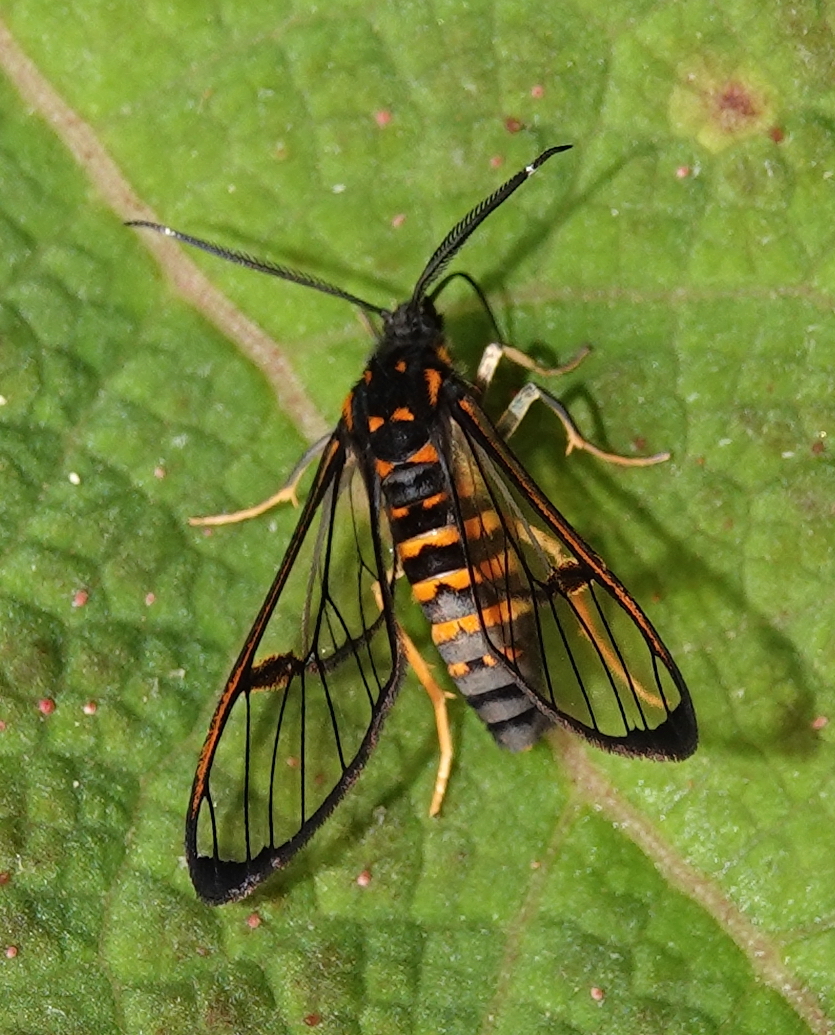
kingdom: Animalia
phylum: Arthropoda
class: Insecta
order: Lepidoptera
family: Erebidae
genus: Pheia
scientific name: Pheia mathona
